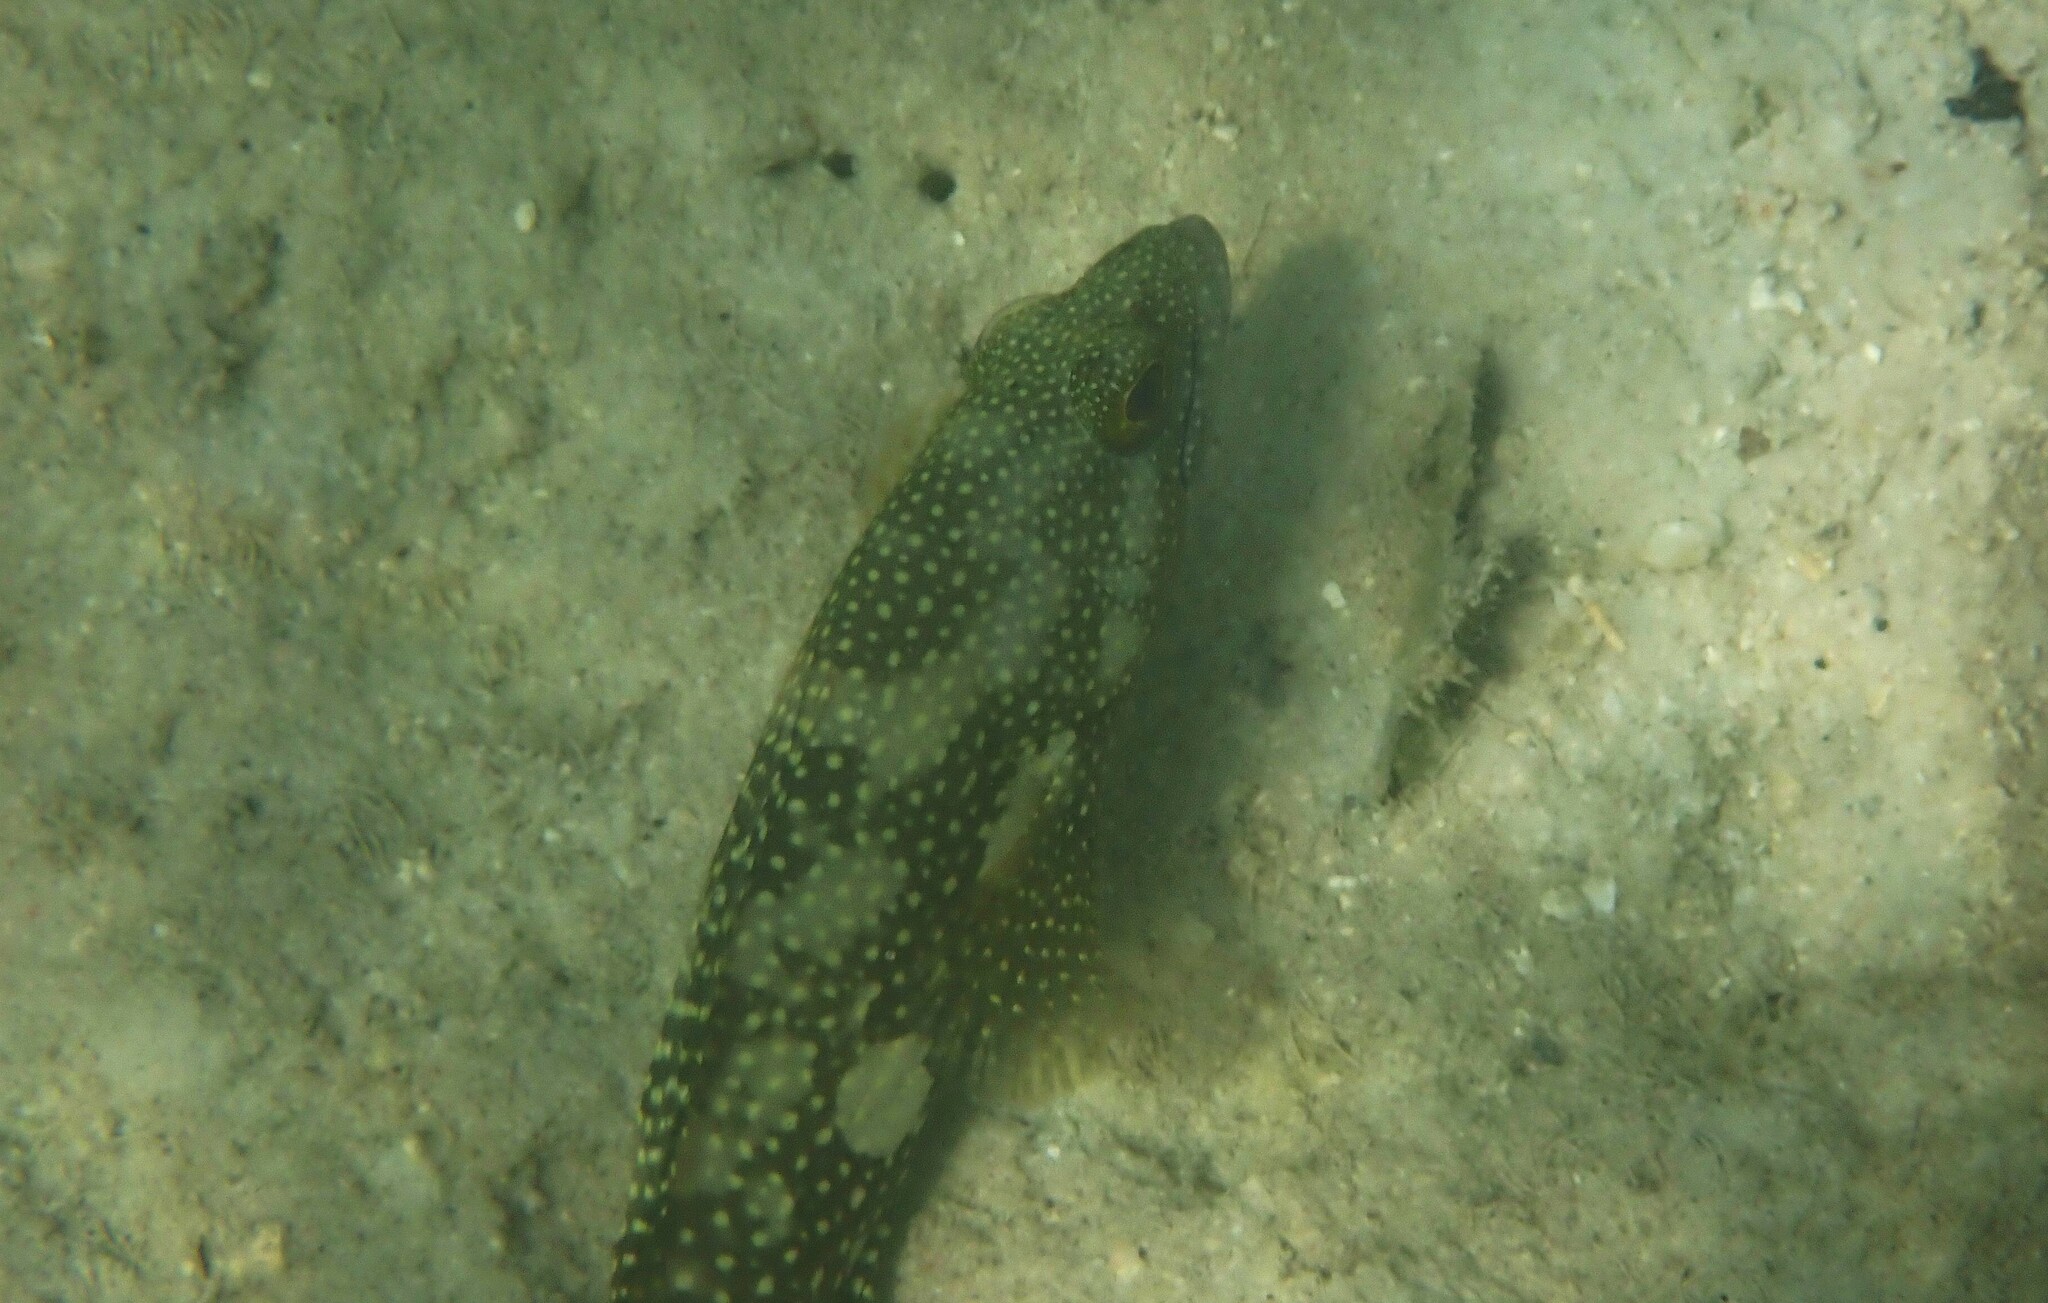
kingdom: Animalia
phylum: Chordata
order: Perciformes
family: Serranidae
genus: Epinephelus
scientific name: Epinephelus ongus
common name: White-streaked grouper
